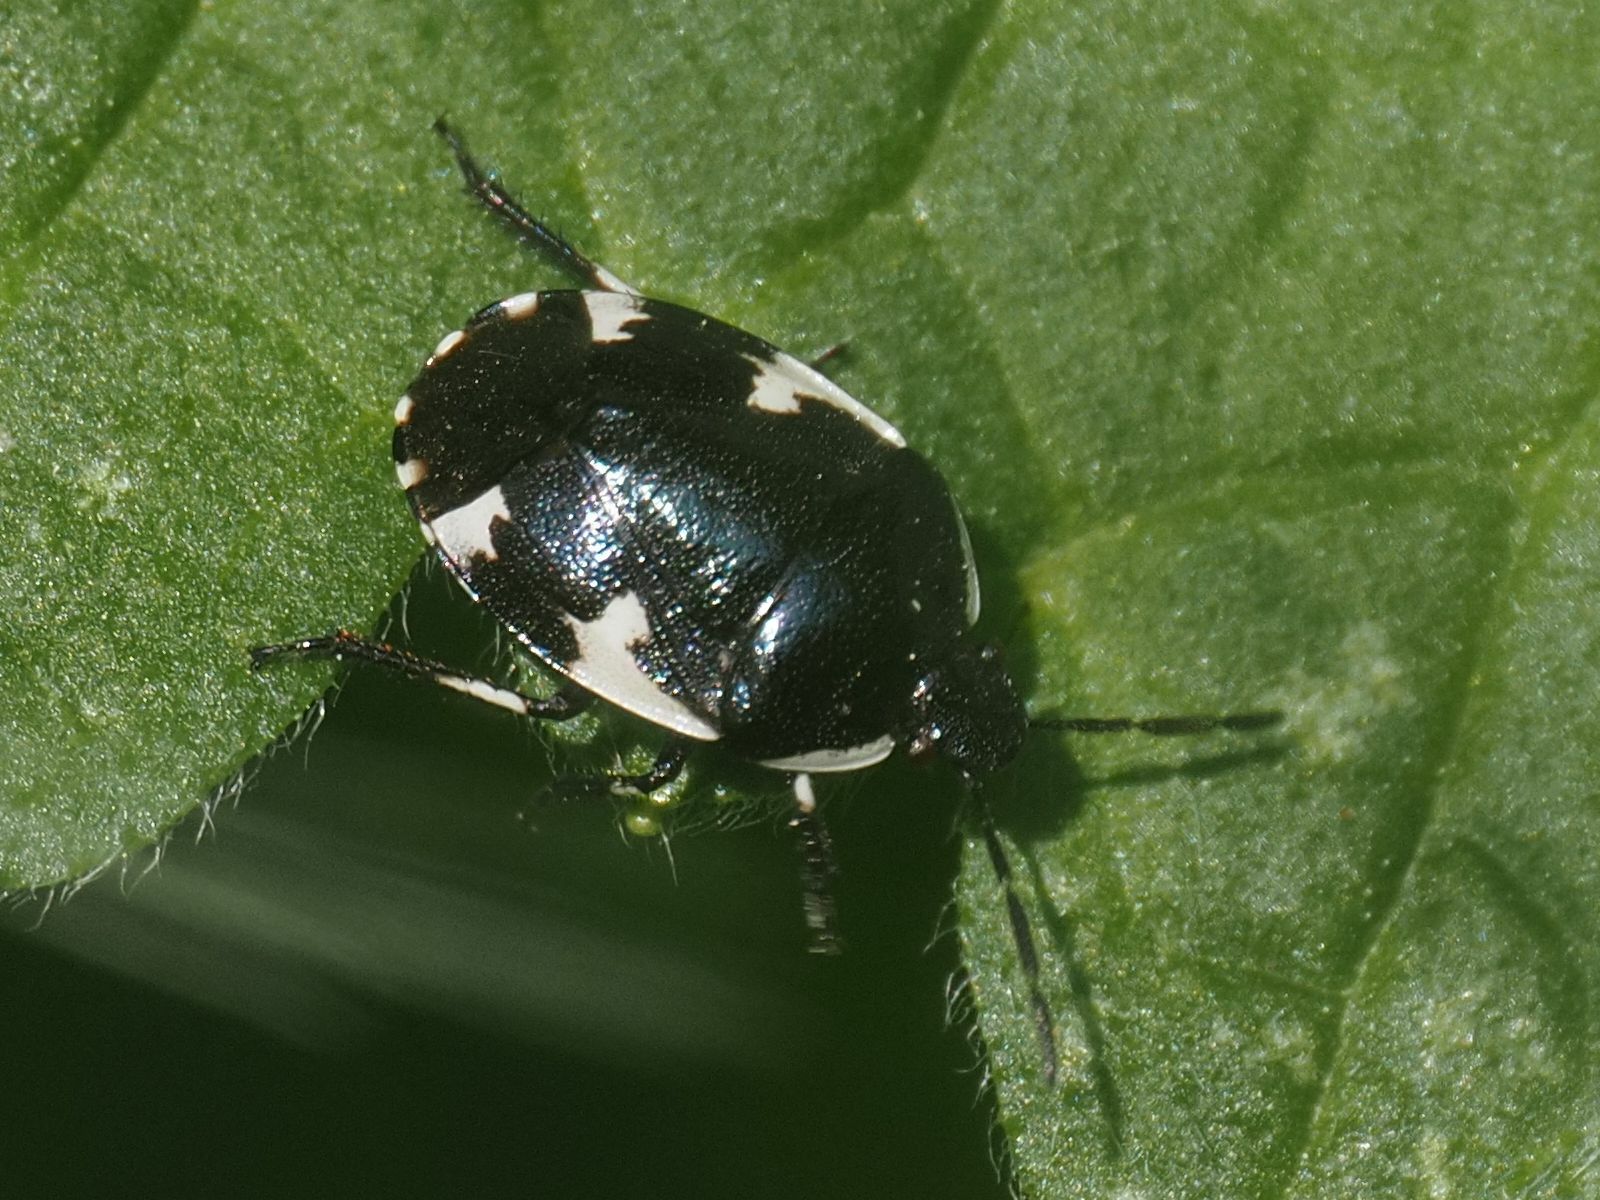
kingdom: Animalia
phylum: Arthropoda
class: Insecta
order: Hemiptera
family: Cydnidae
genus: Tritomegas
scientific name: Tritomegas sexmaculatus
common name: Rambur's pied shieldbug
